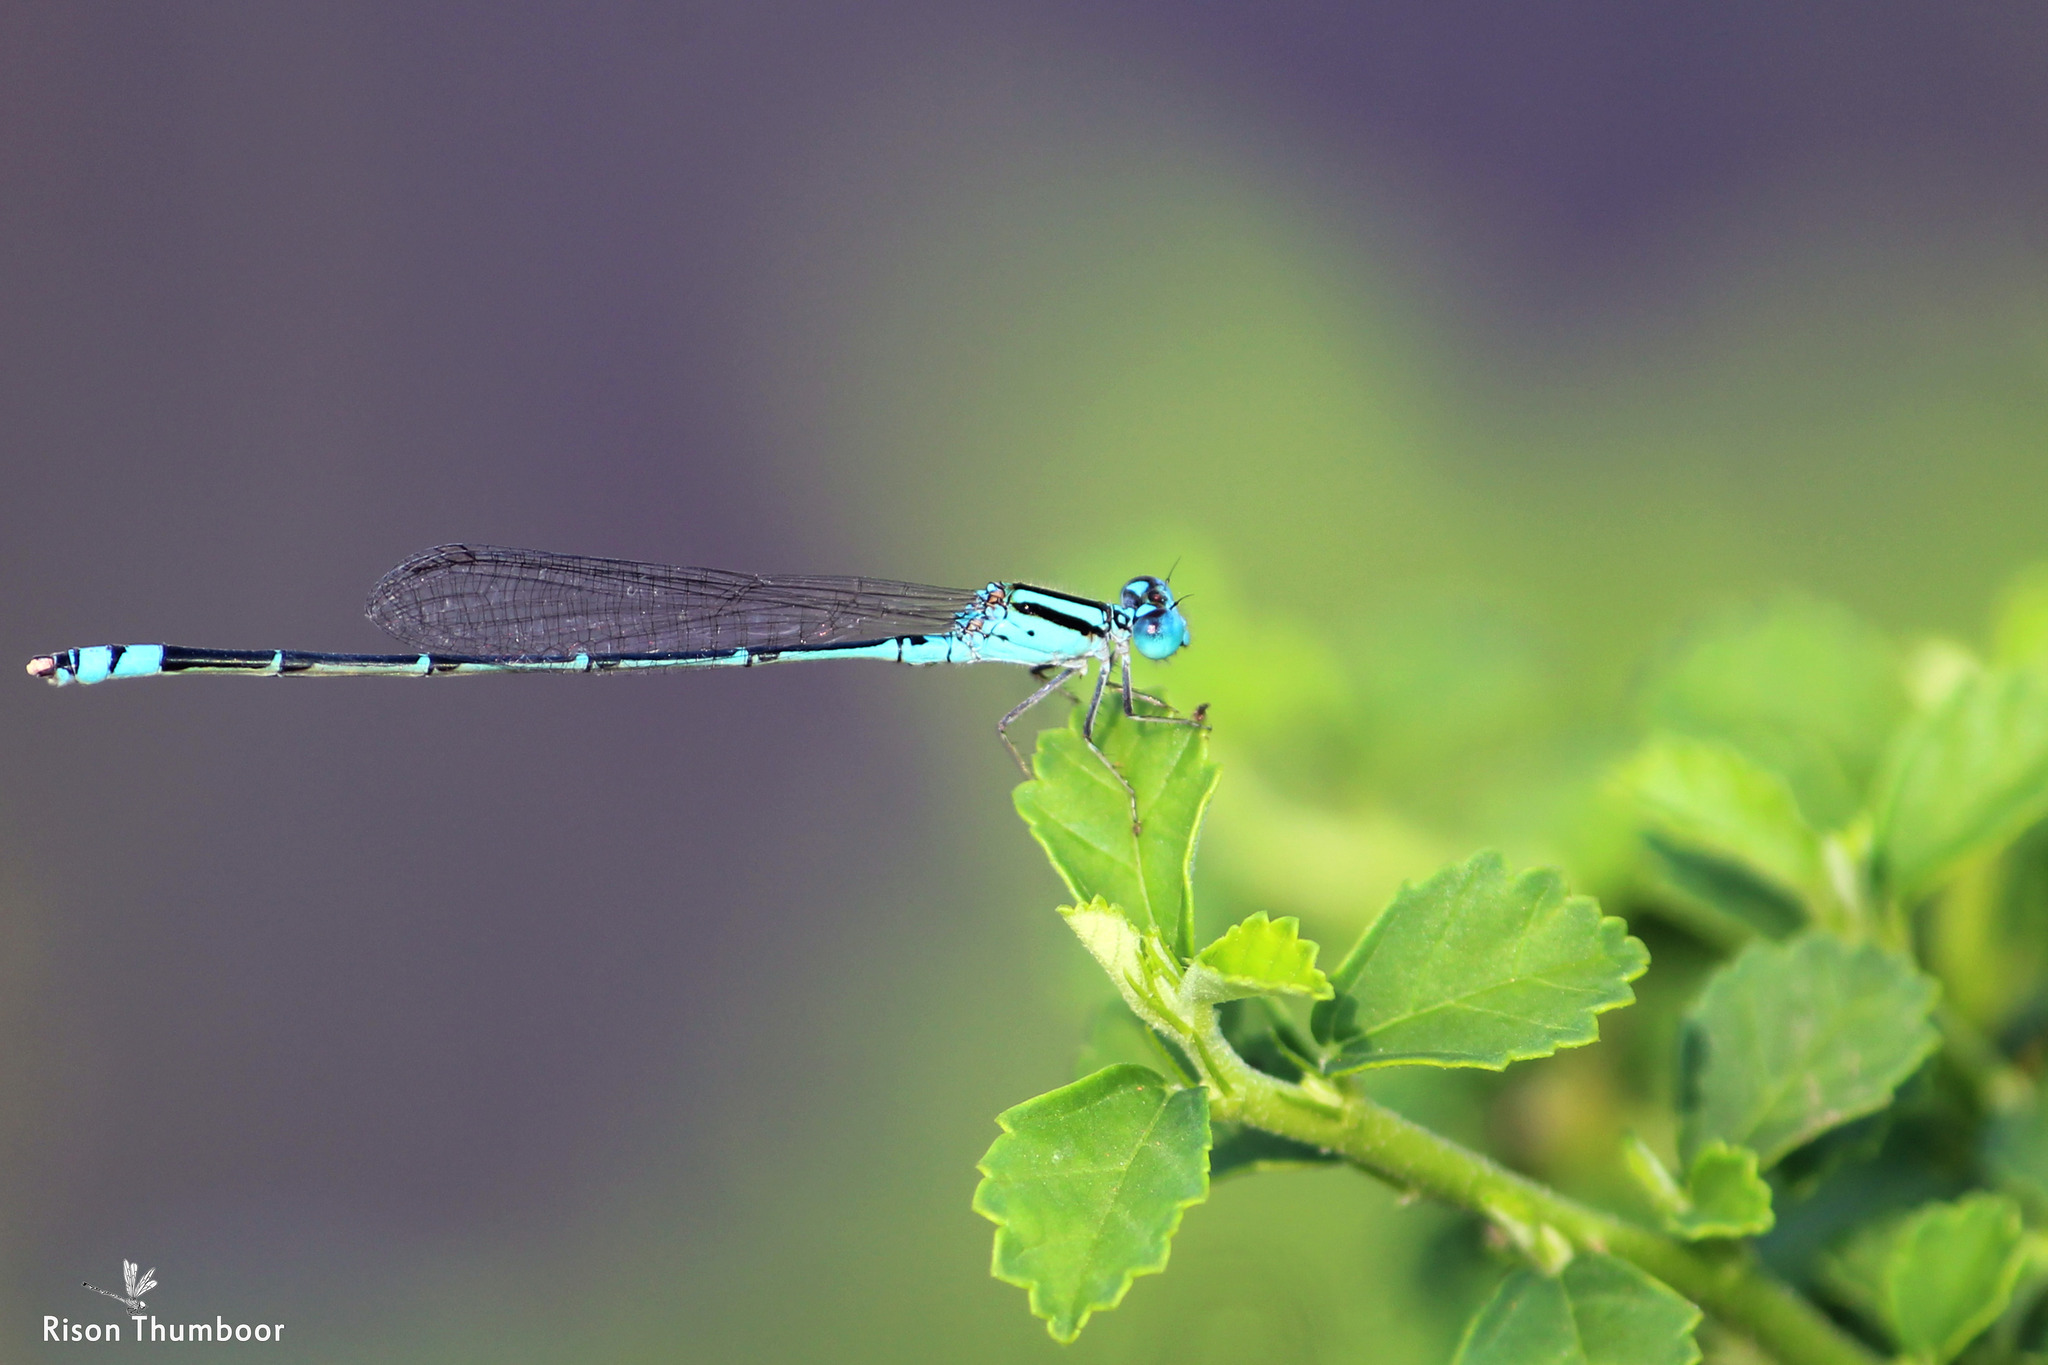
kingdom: Animalia
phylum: Arthropoda
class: Insecta
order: Odonata
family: Coenagrionidae
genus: Pseudagrion
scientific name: Pseudagrion microcephalum
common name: Blue riverdamsel
